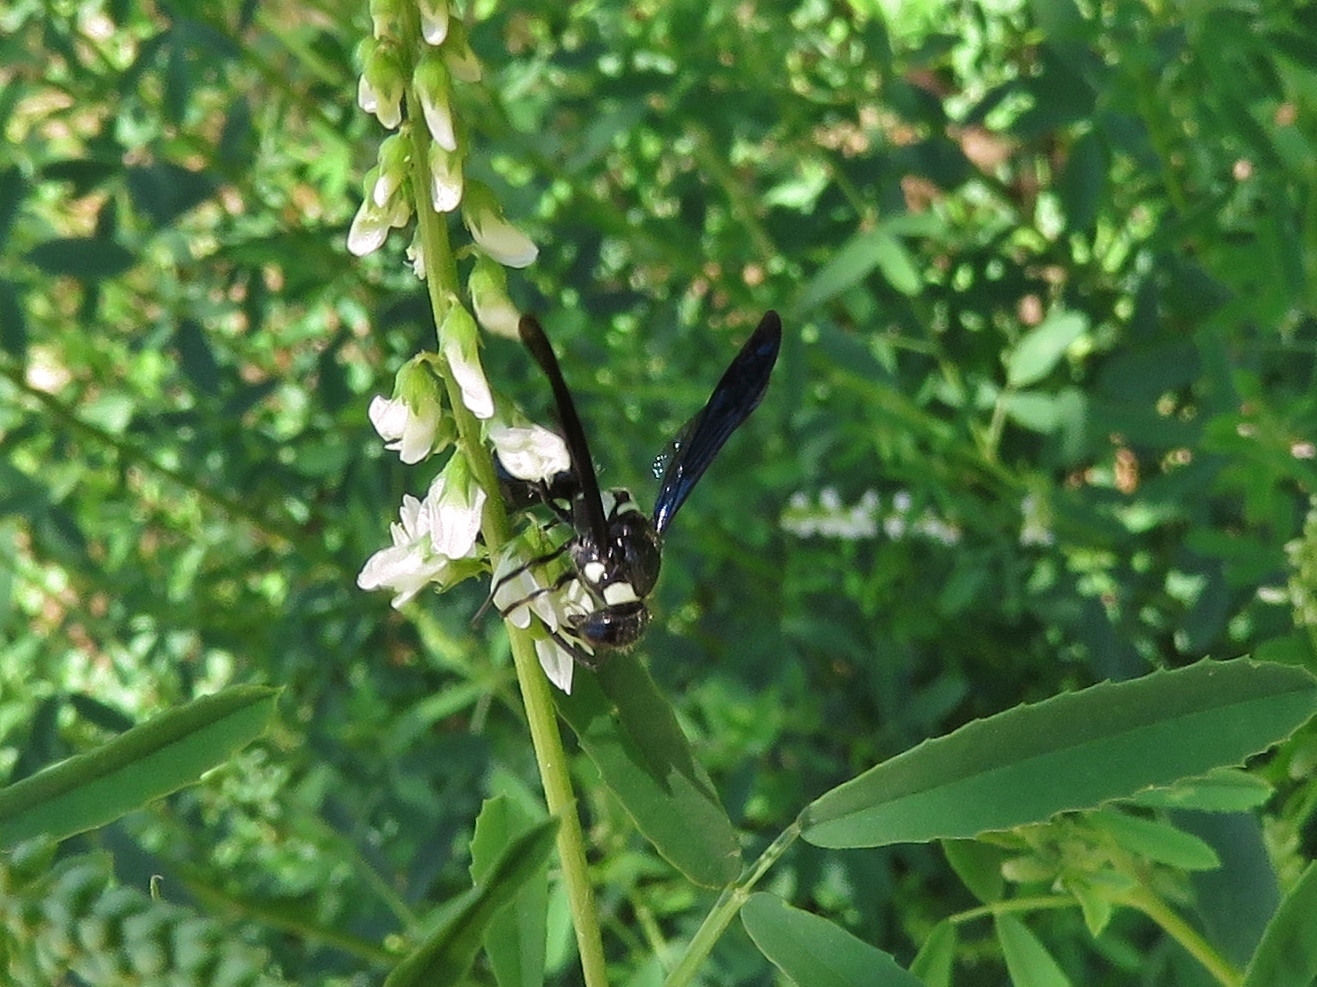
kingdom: Animalia
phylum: Arthropoda
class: Insecta
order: Hymenoptera
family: Eumenidae
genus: Pseudodynerus
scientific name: Pseudodynerus quadrisectus
